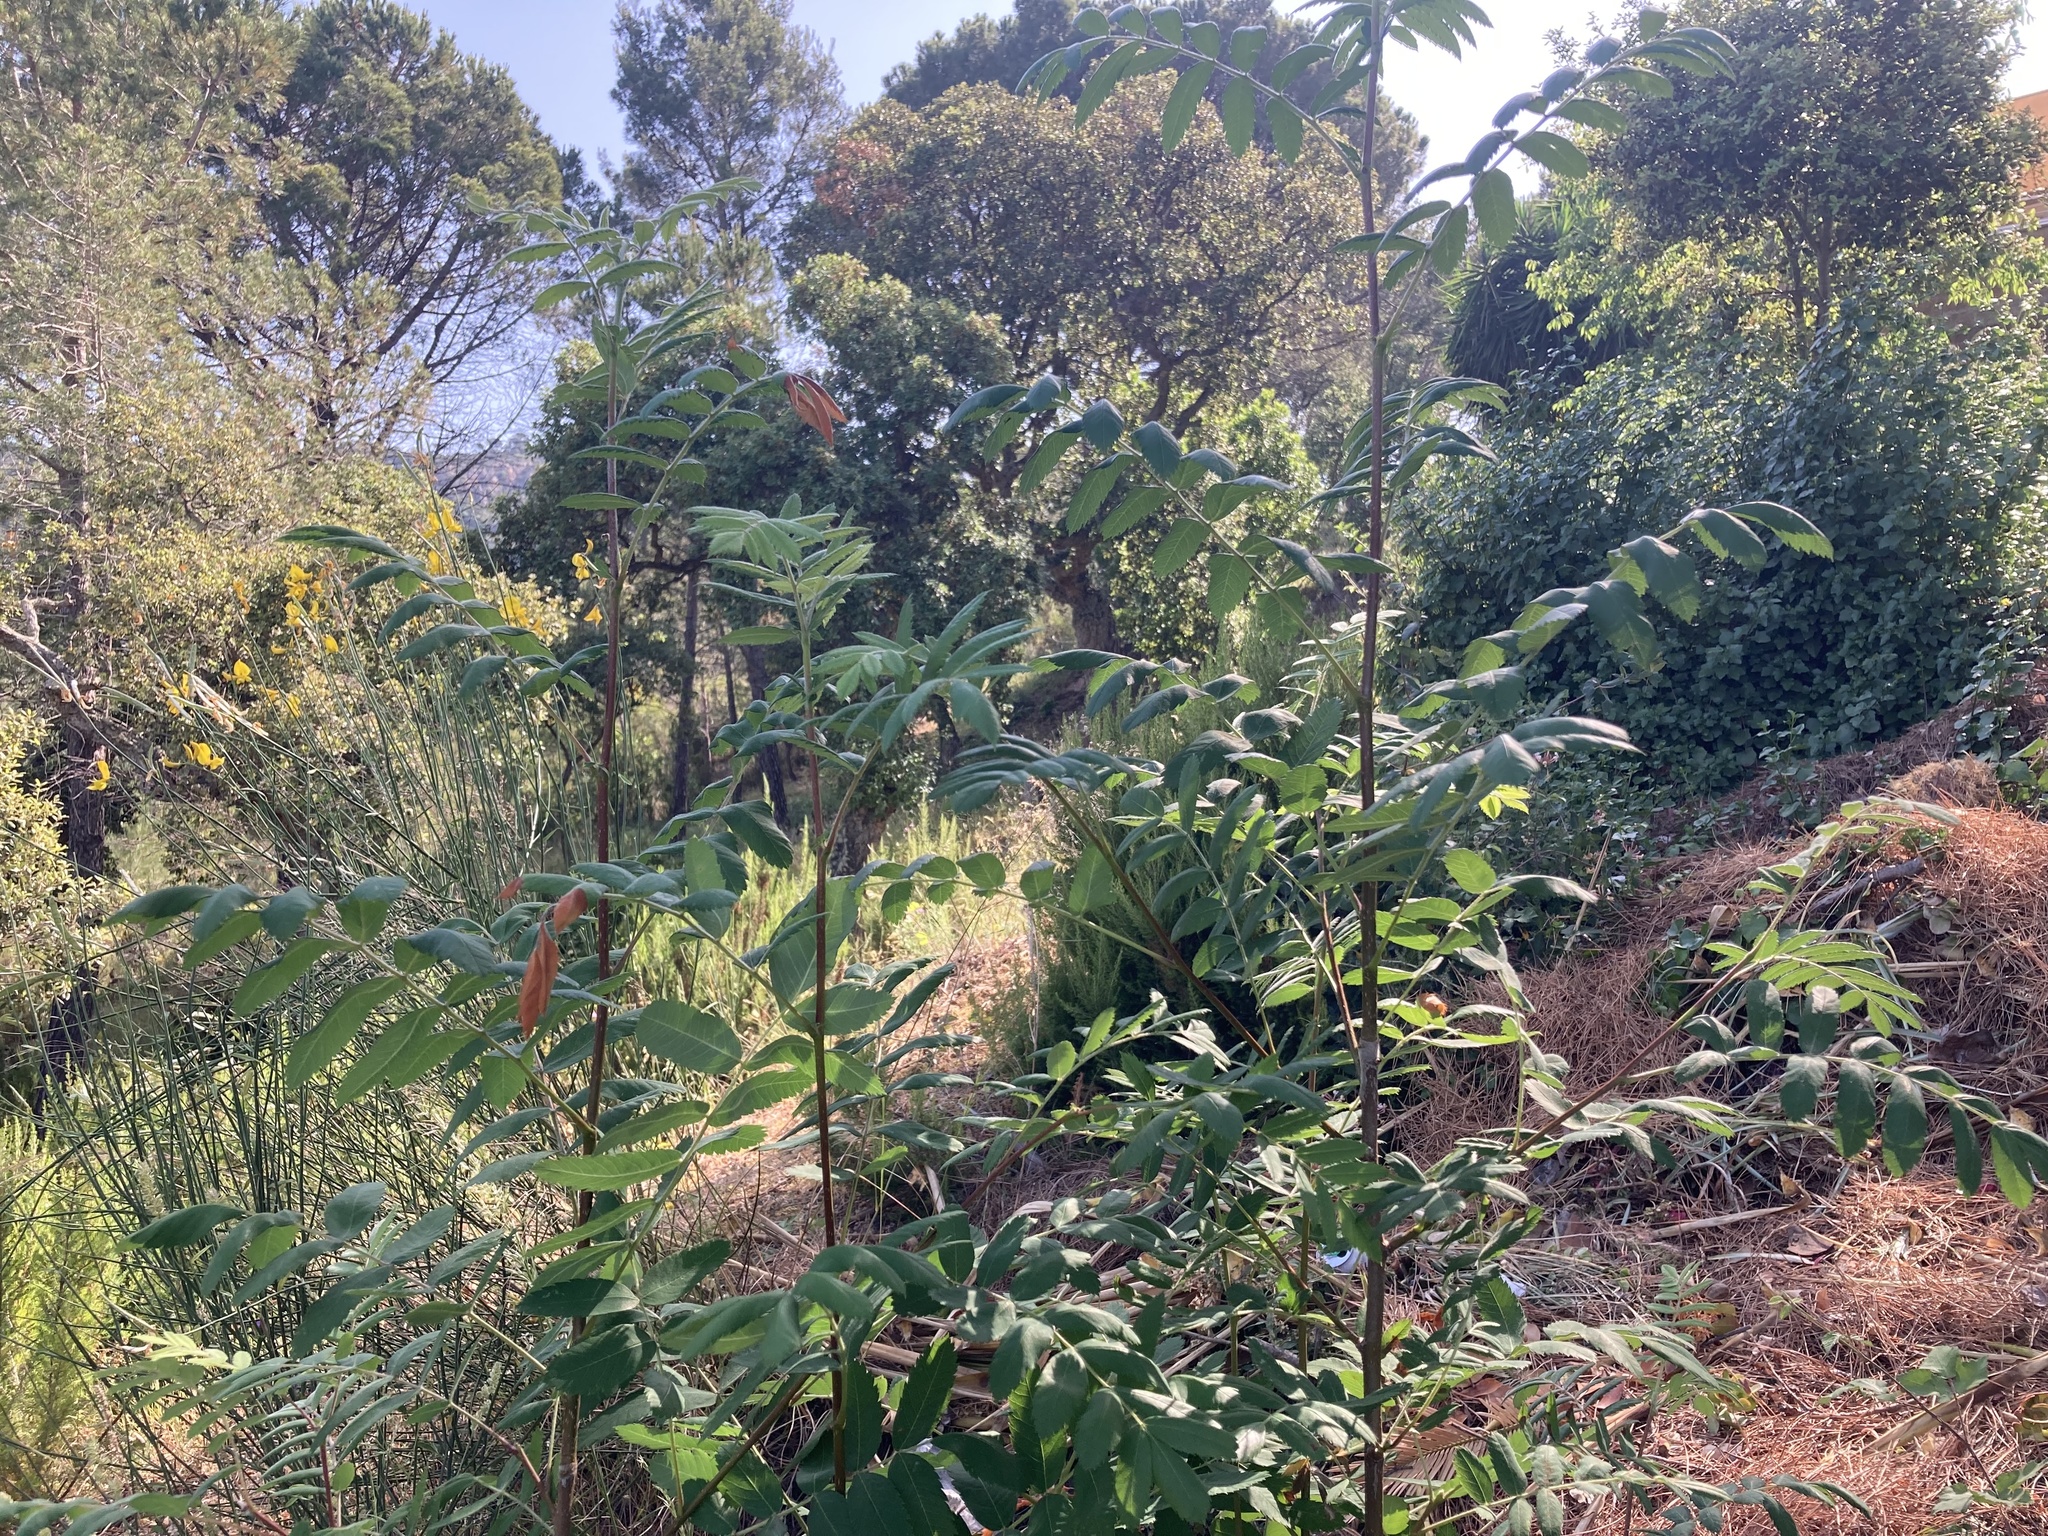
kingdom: Plantae
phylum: Tracheophyta
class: Magnoliopsida
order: Rosales
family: Rosaceae
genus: Cormus
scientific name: Cormus domestica
